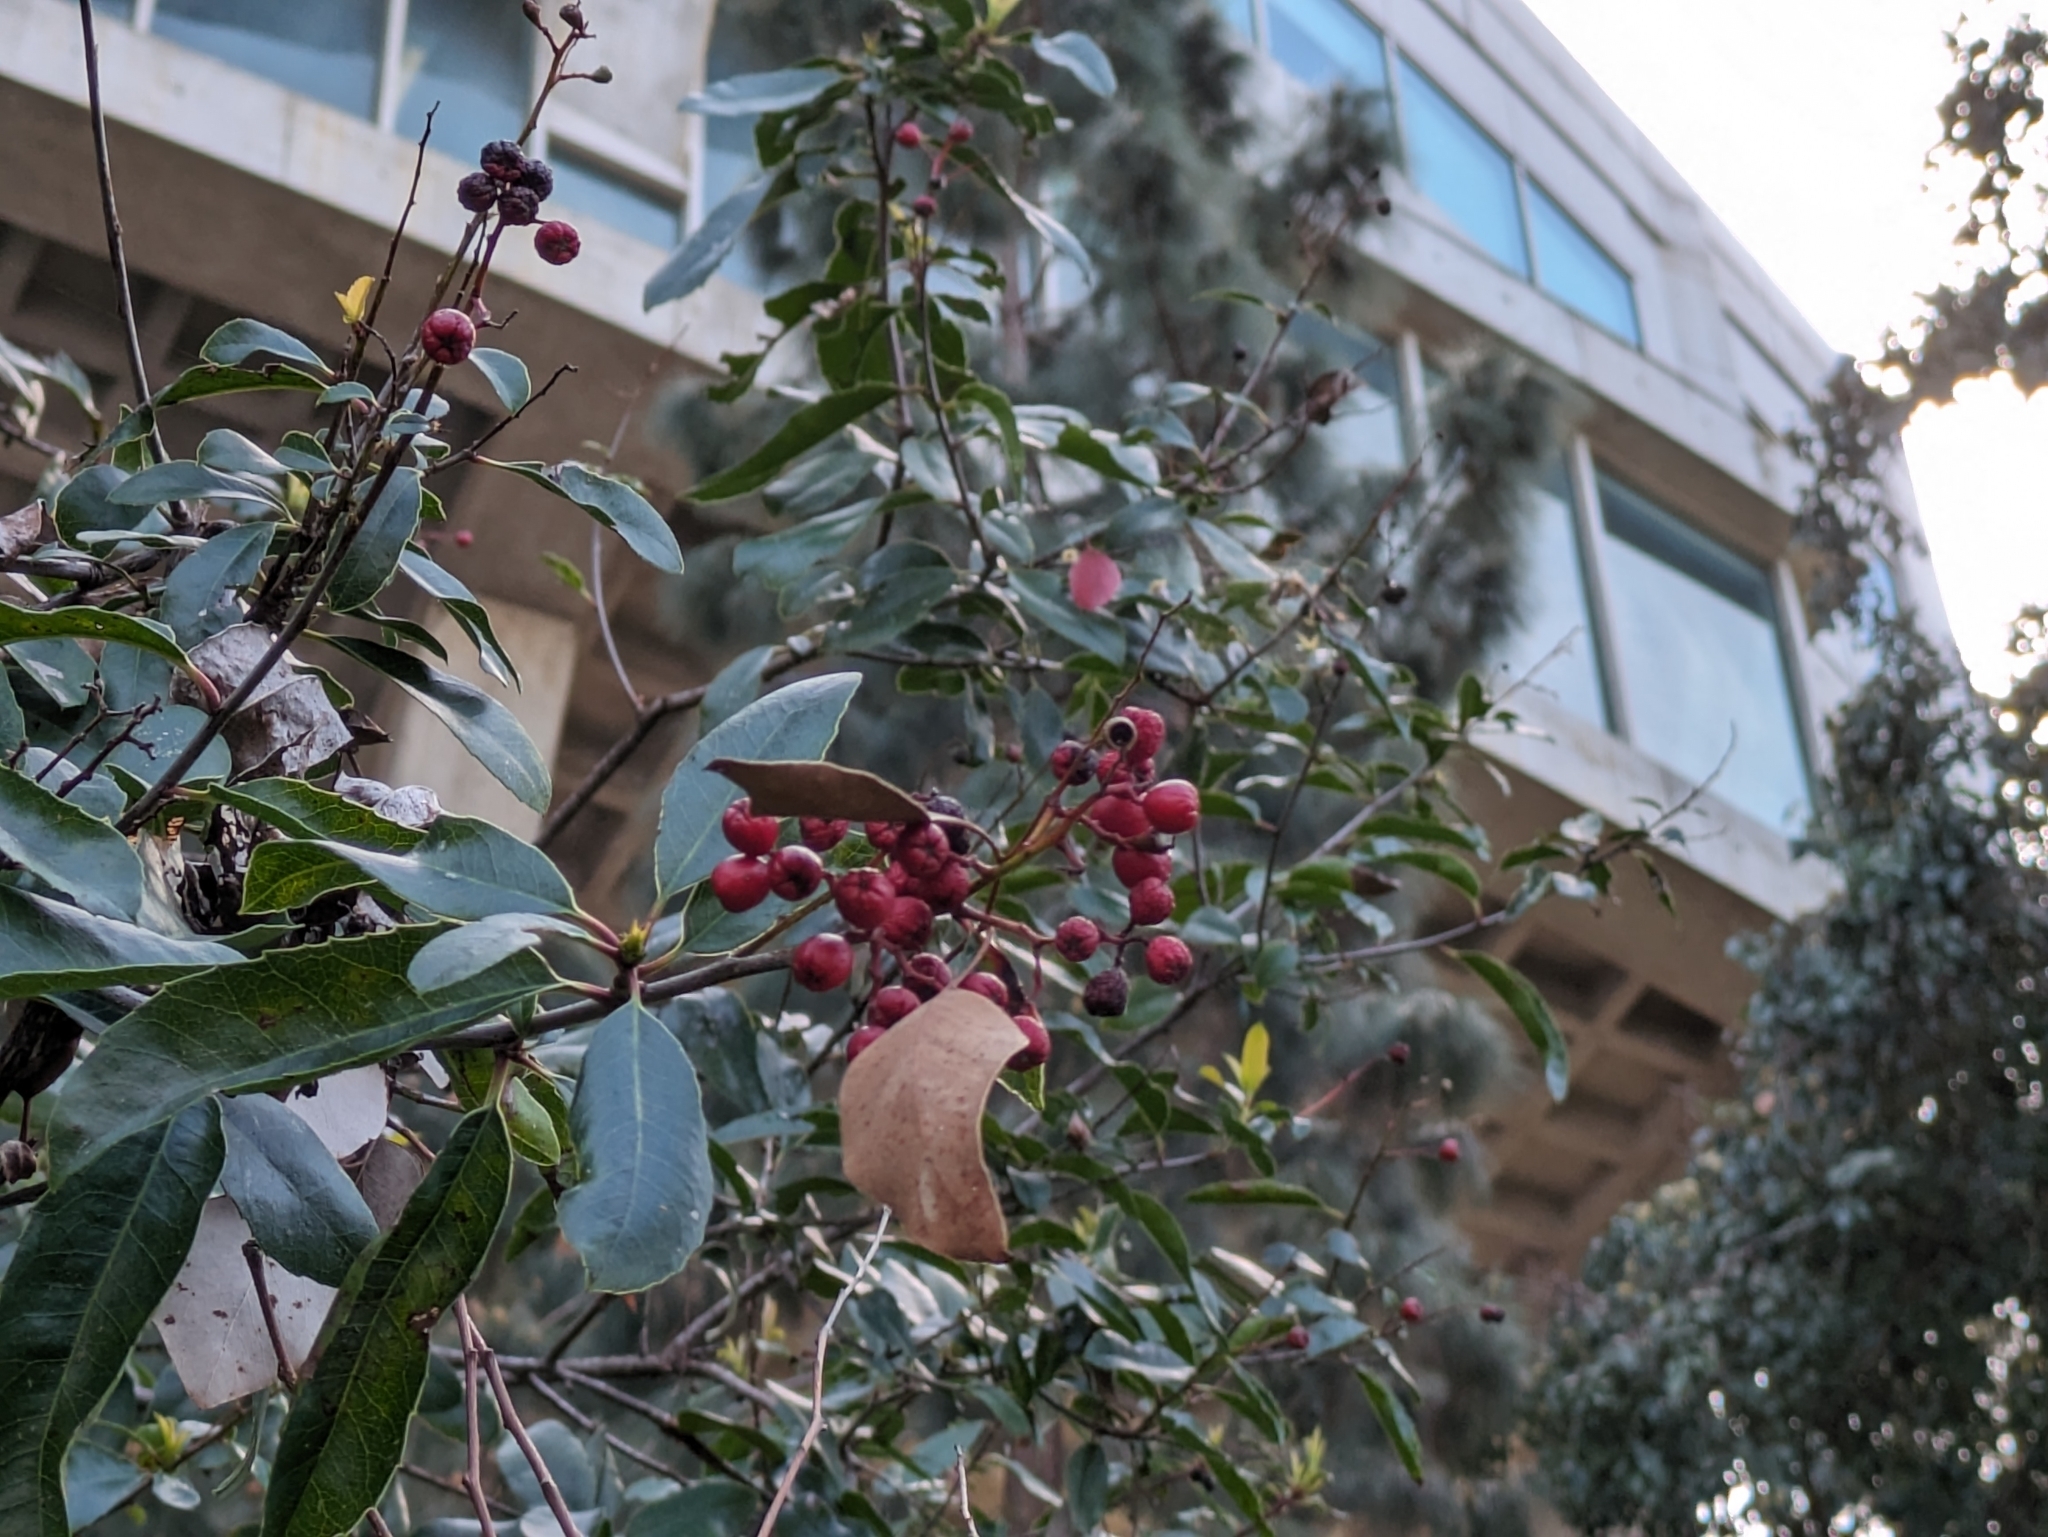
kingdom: Plantae
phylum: Tracheophyta
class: Magnoliopsida
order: Rosales
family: Rosaceae
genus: Heteromeles
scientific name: Heteromeles arbutifolia
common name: California-holly
